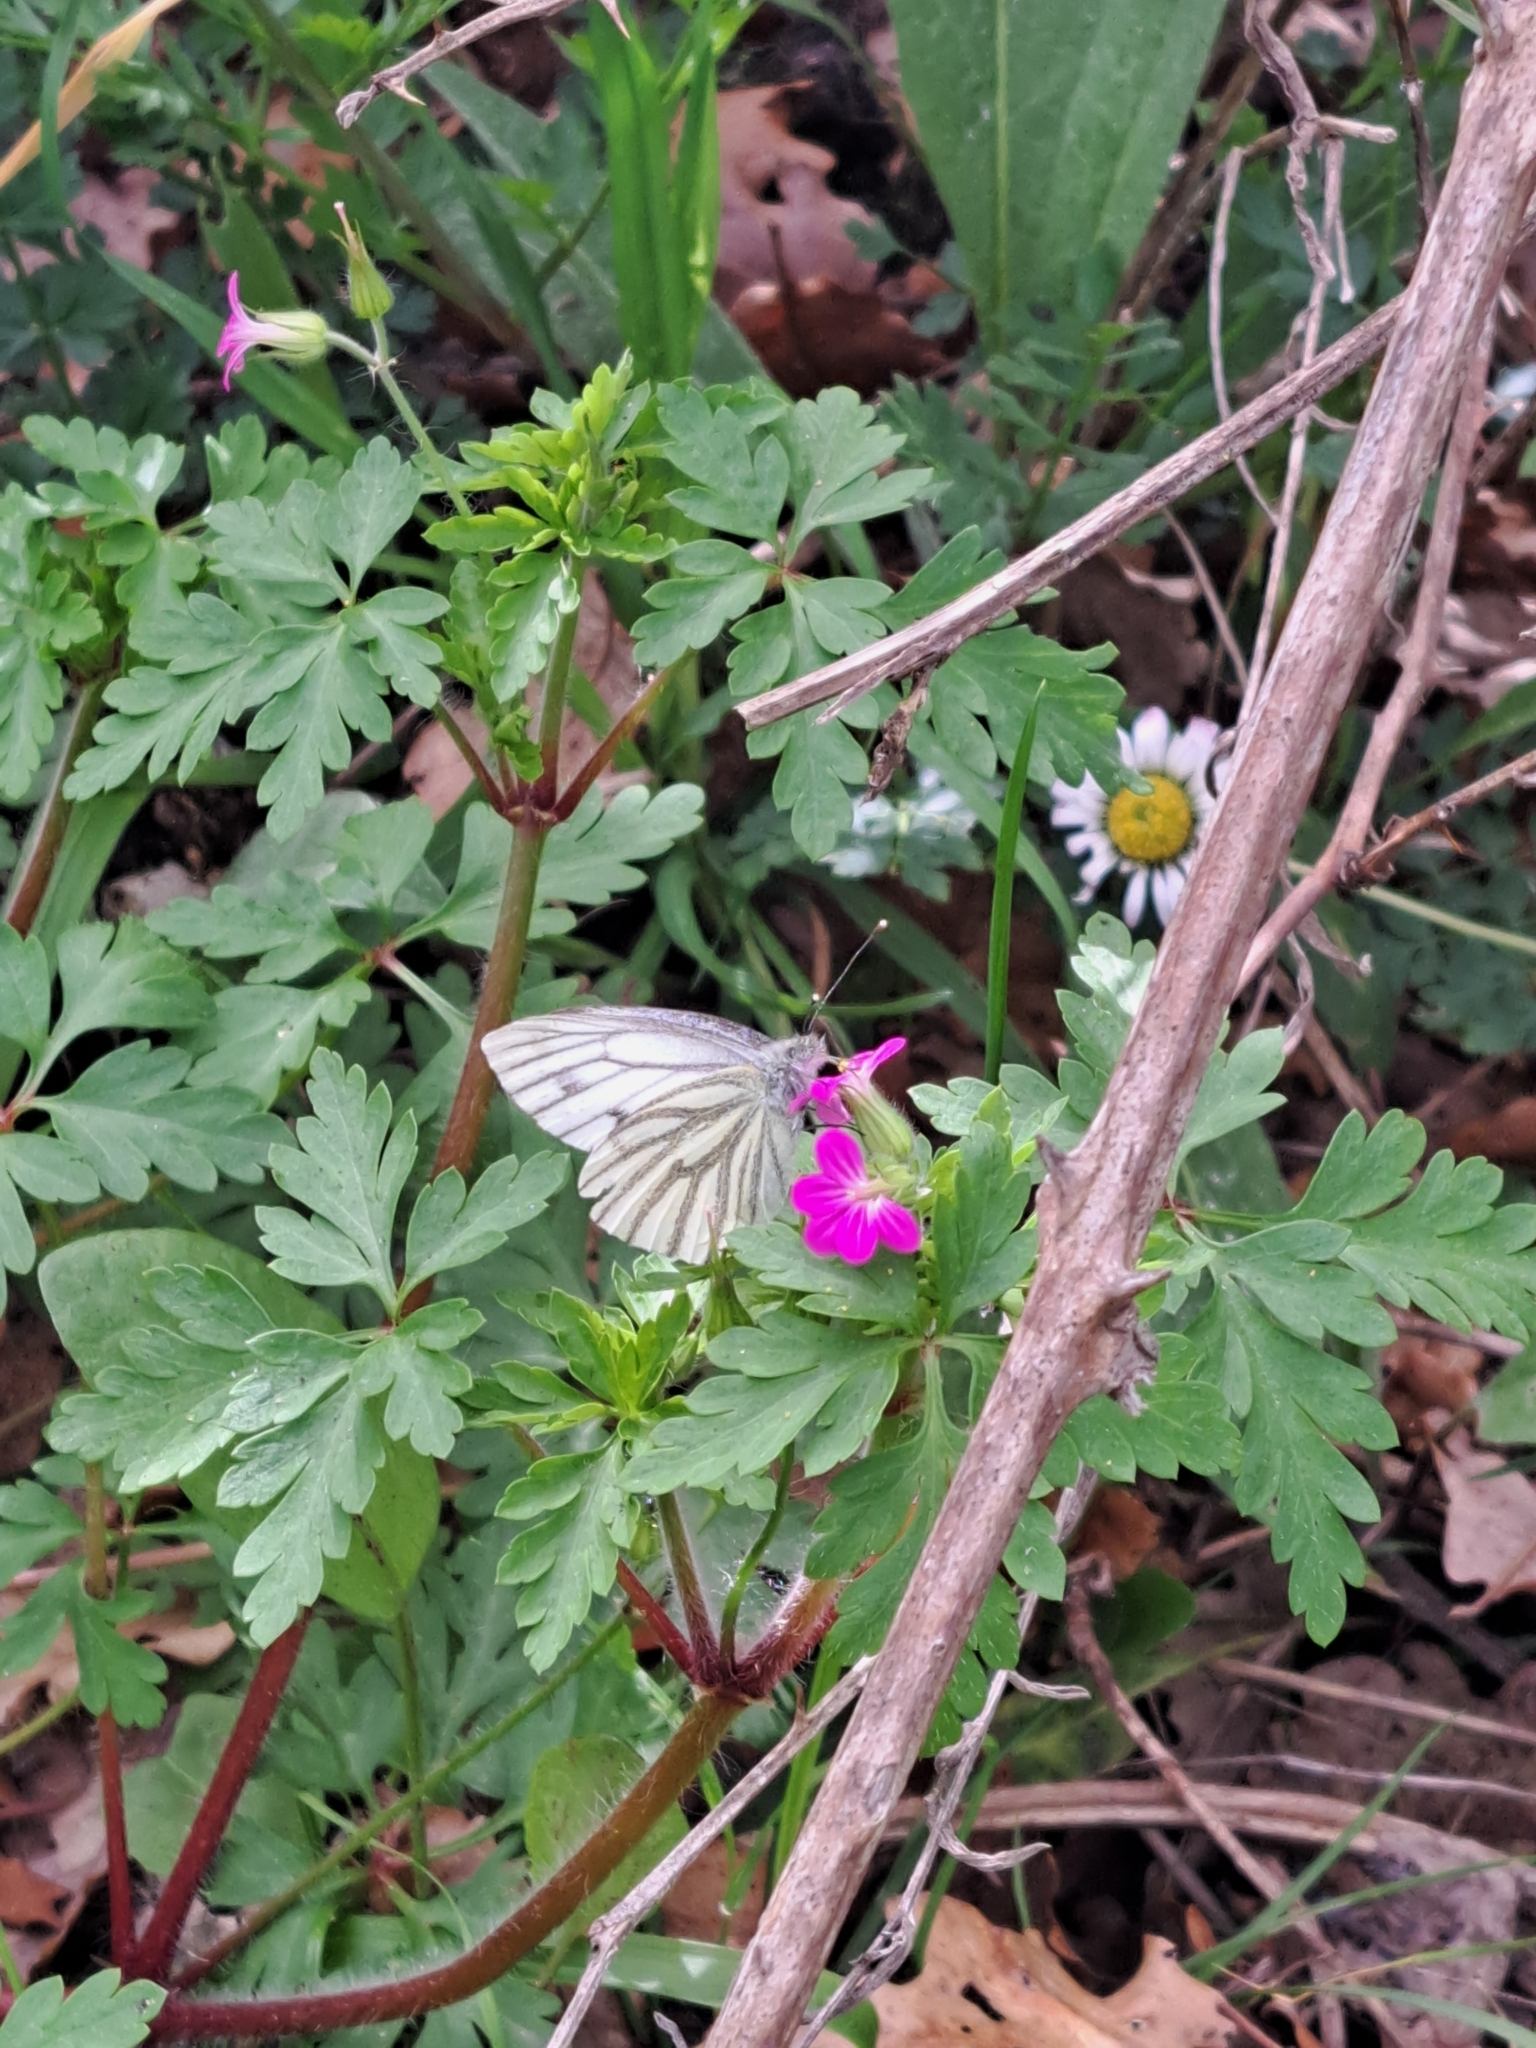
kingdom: Animalia
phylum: Arthropoda
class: Insecta
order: Lepidoptera
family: Pieridae
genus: Pieris
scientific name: Pieris napi
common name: Green-veined white
